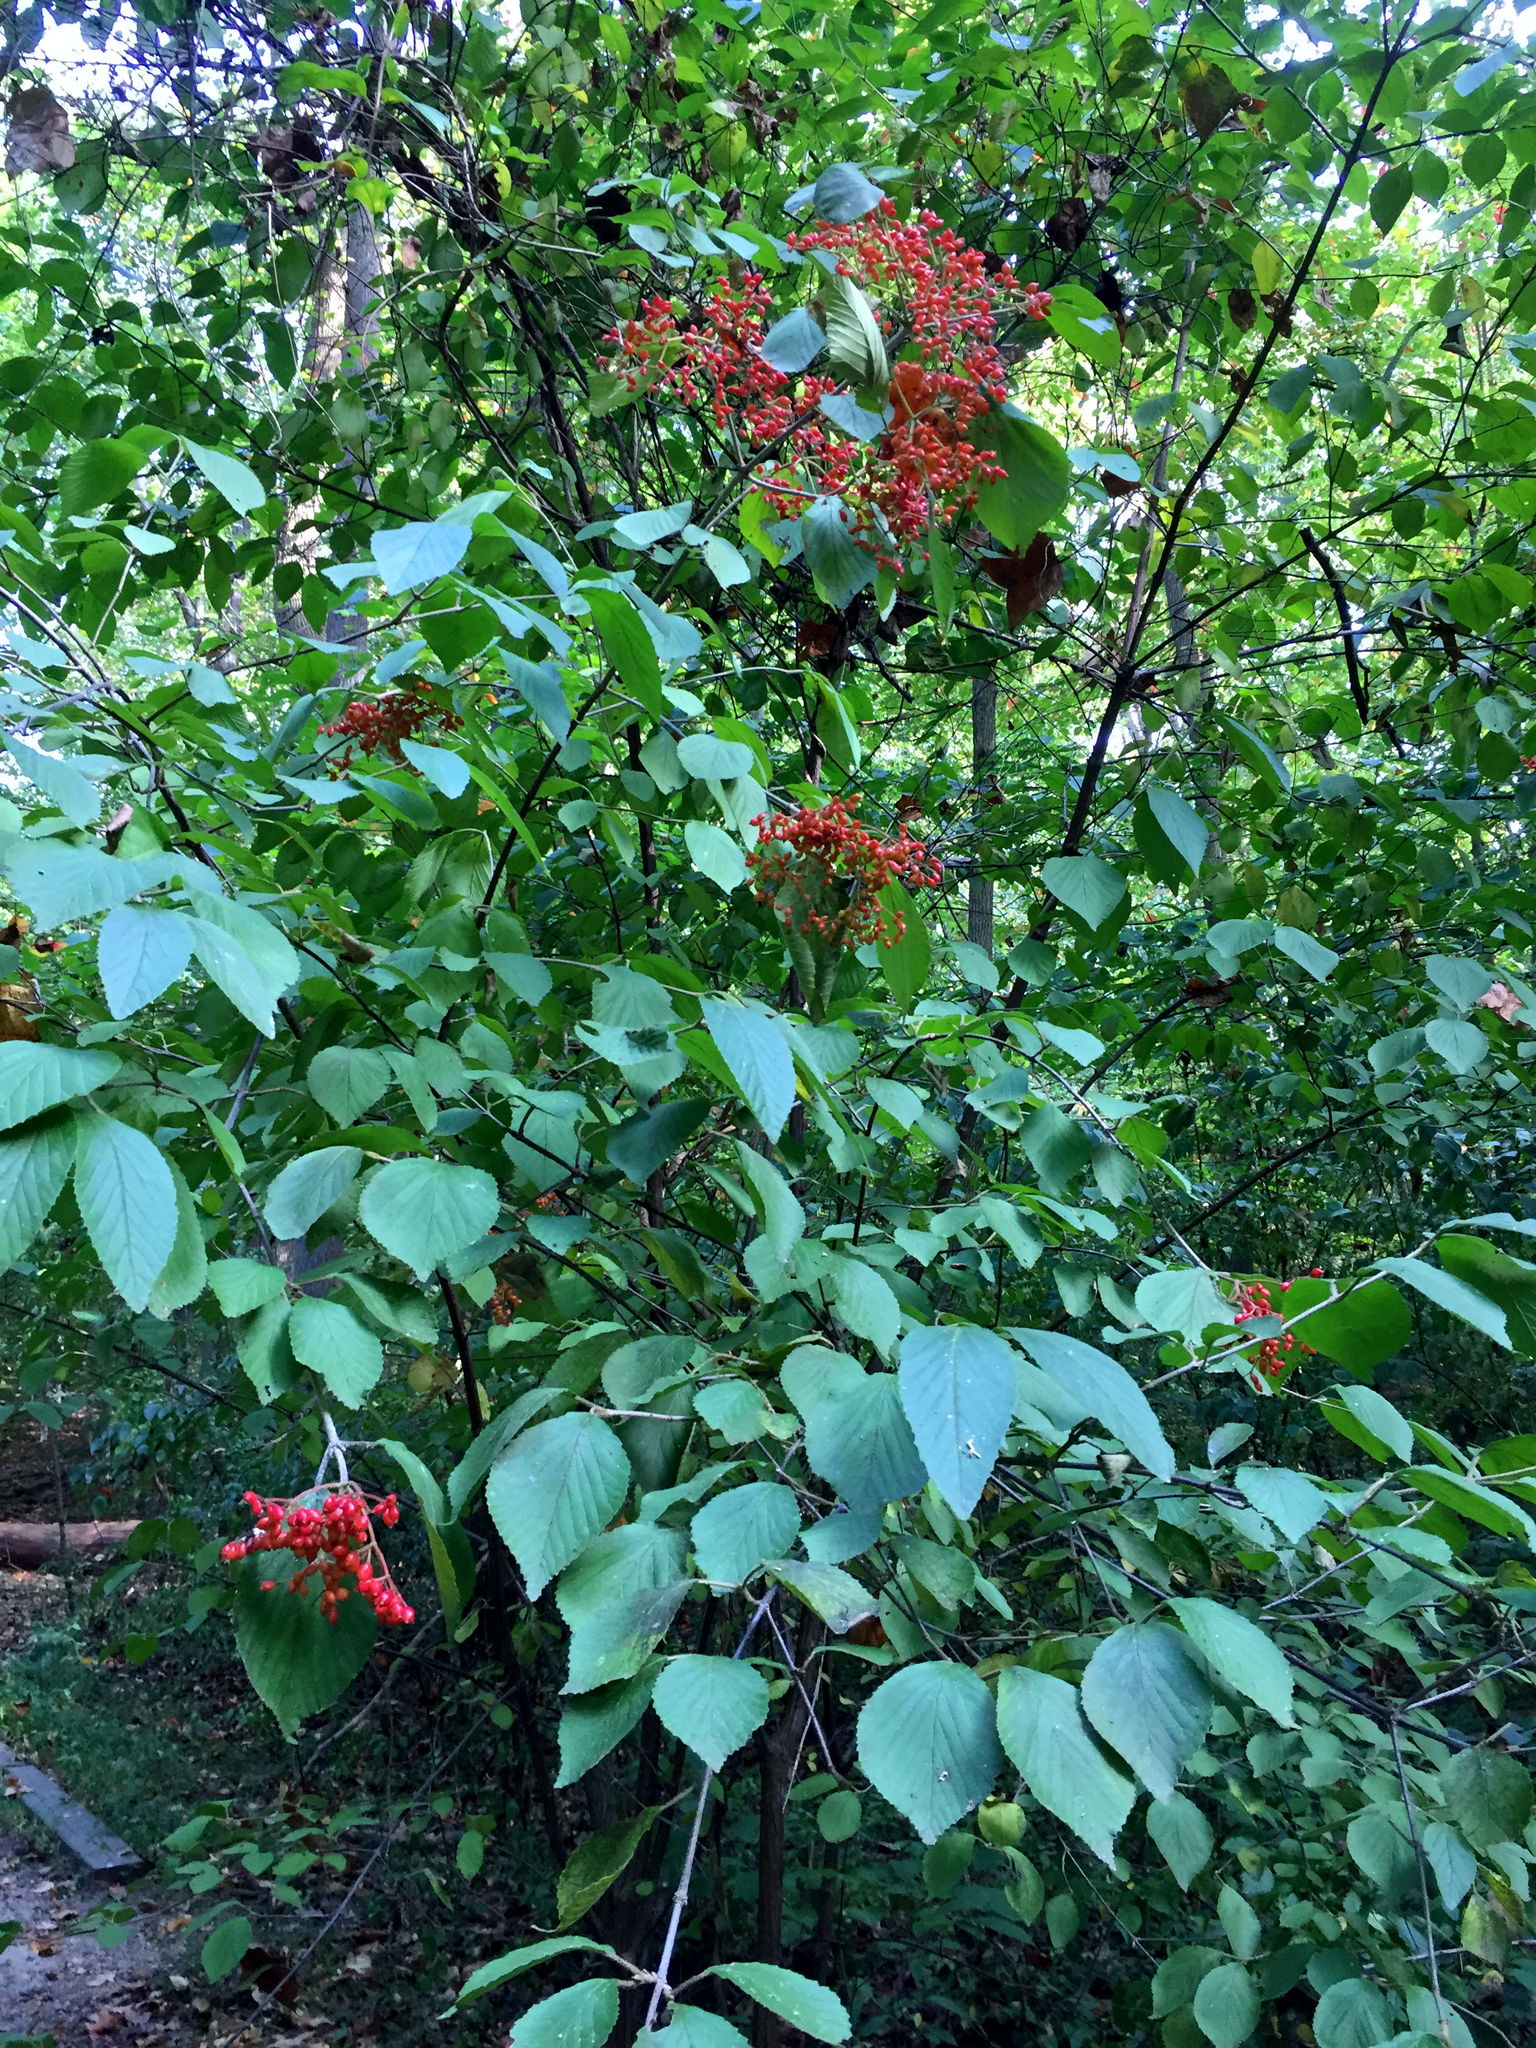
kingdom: Plantae
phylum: Tracheophyta
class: Magnoliopsida
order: Dipsacales
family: Viburnaceae
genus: Viburnum
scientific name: Viburnum dilatatum
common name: Linden arrowwood
